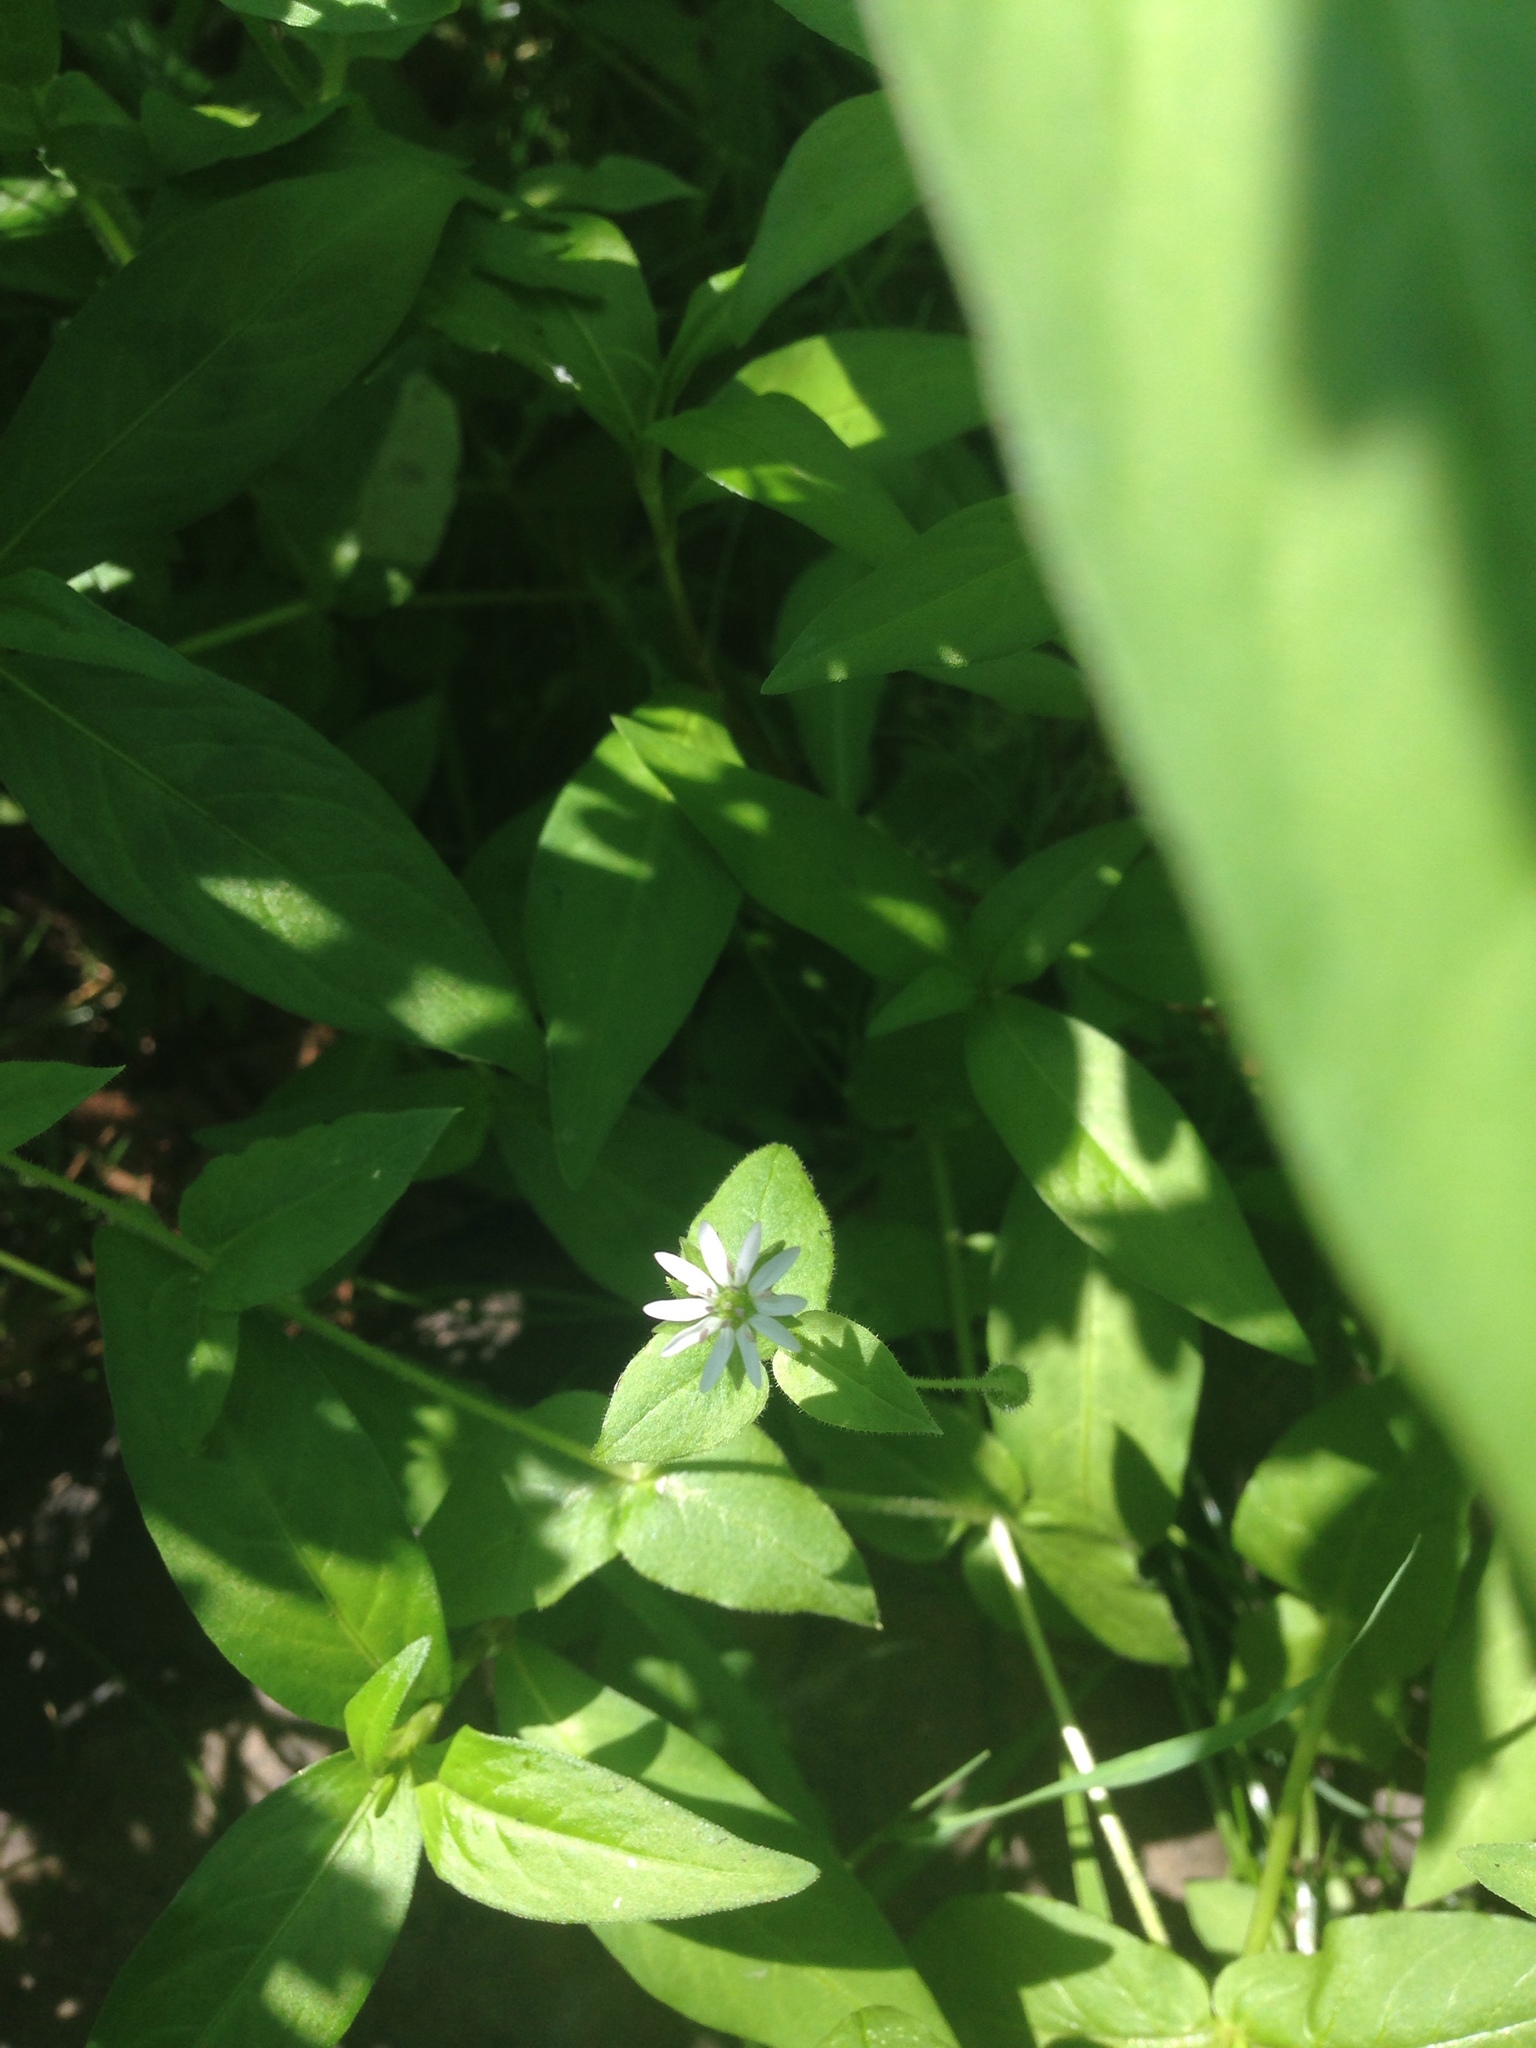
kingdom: Plantae
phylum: Tracheophyta
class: Magnoliopsida
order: Caryophyllales
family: Caryophyllaceae
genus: Stellaria
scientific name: Stellaria media
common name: Common chickweed
